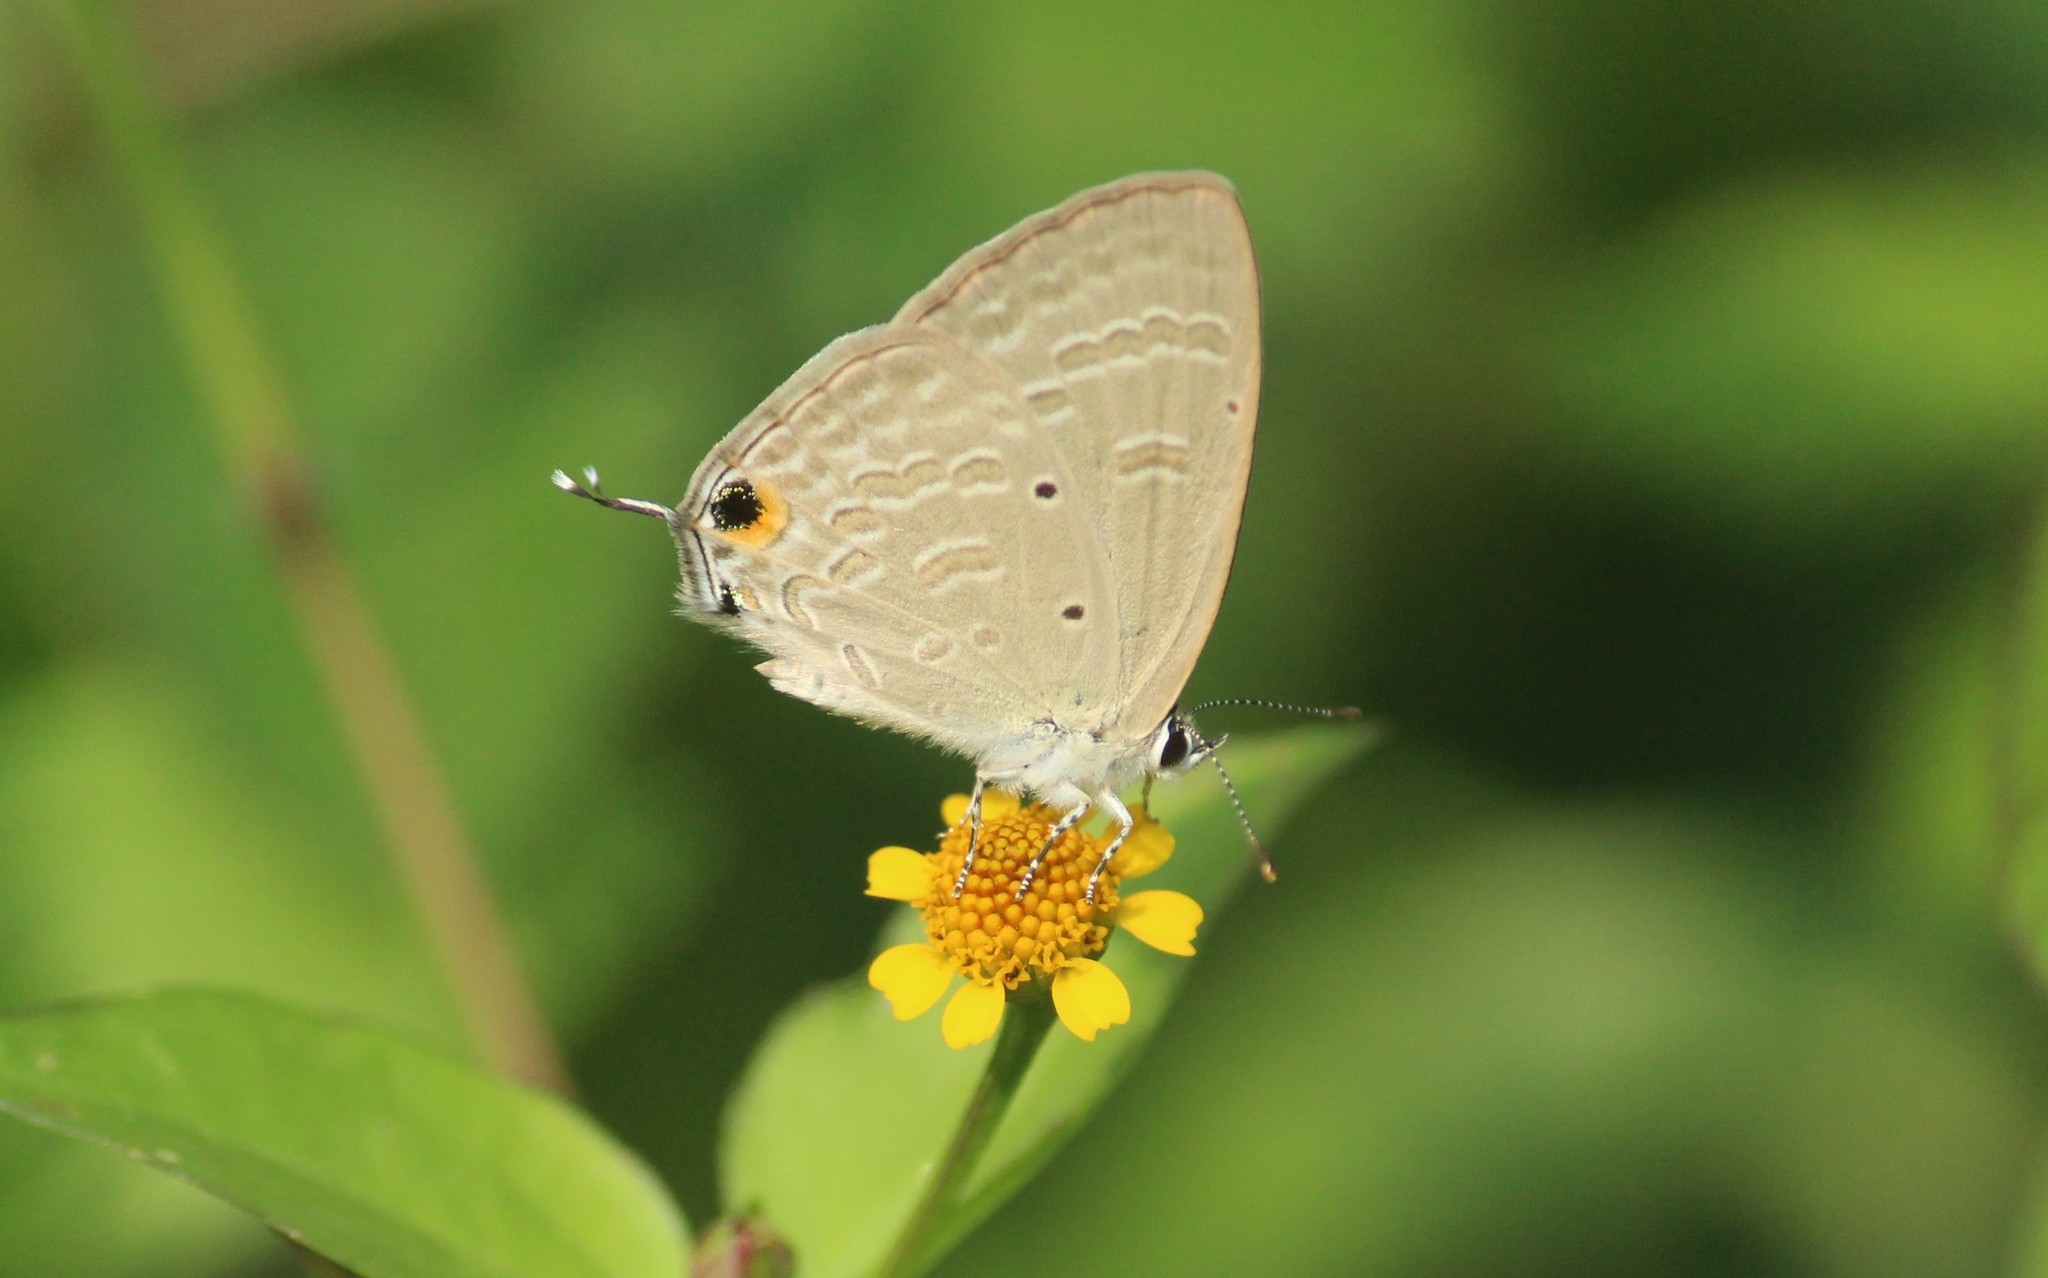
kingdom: Animalia
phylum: Arthropoda
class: Insecta
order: Lepidoptera
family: Lycaenidae
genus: Catochrysops
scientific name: Catochrysops strabo
